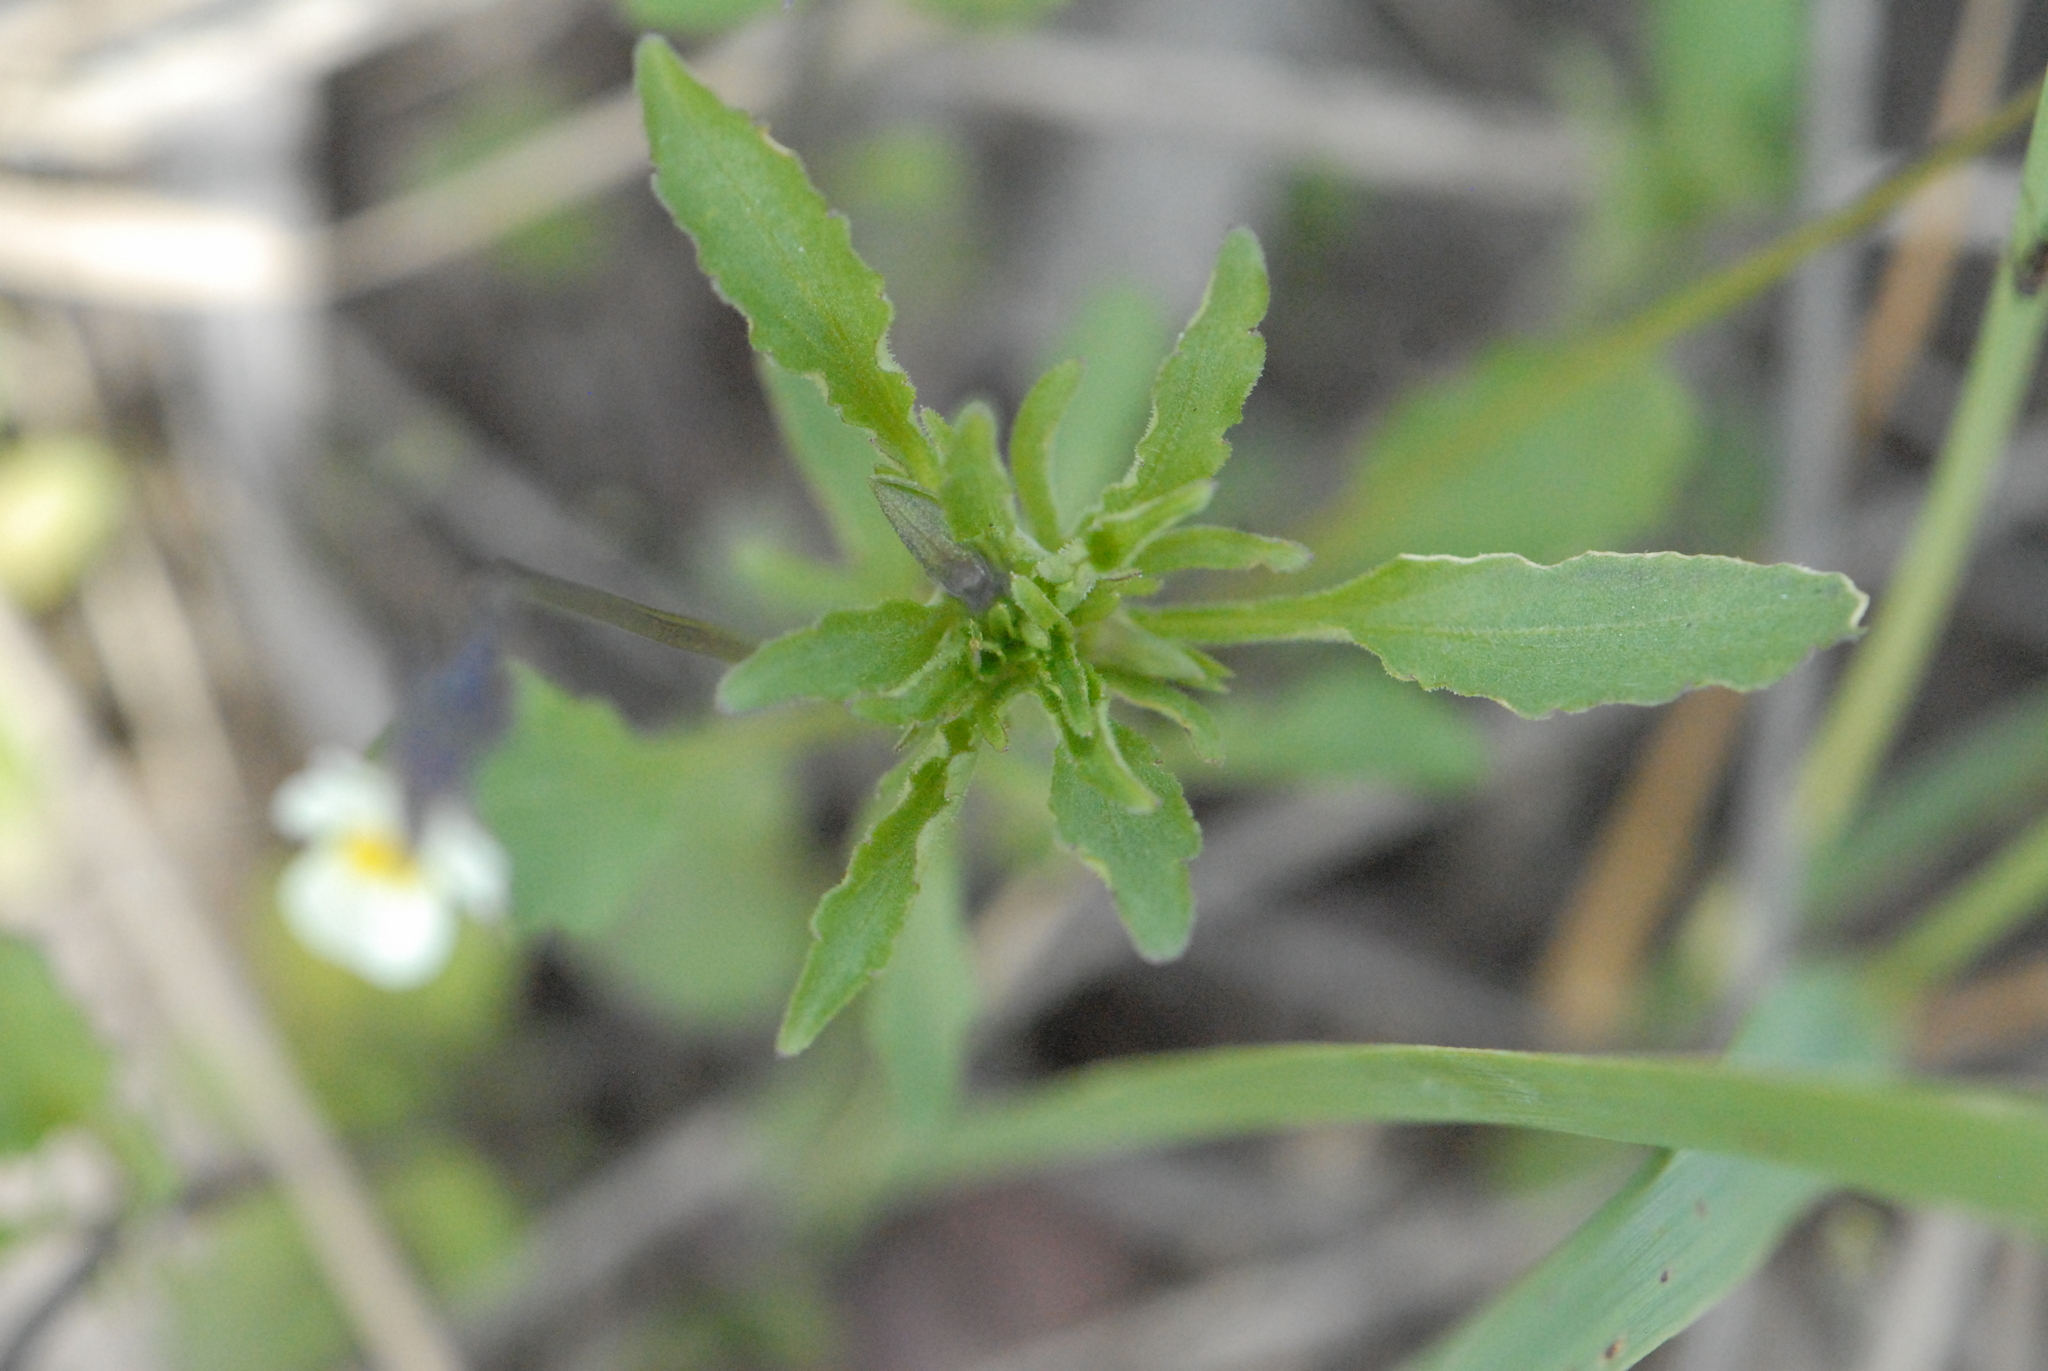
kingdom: Plantae
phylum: Tracheophyta
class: Magnoliopsida
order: Malpighiales
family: Violaceae
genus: Viola
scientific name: Viola arvensis
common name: Field pansy
